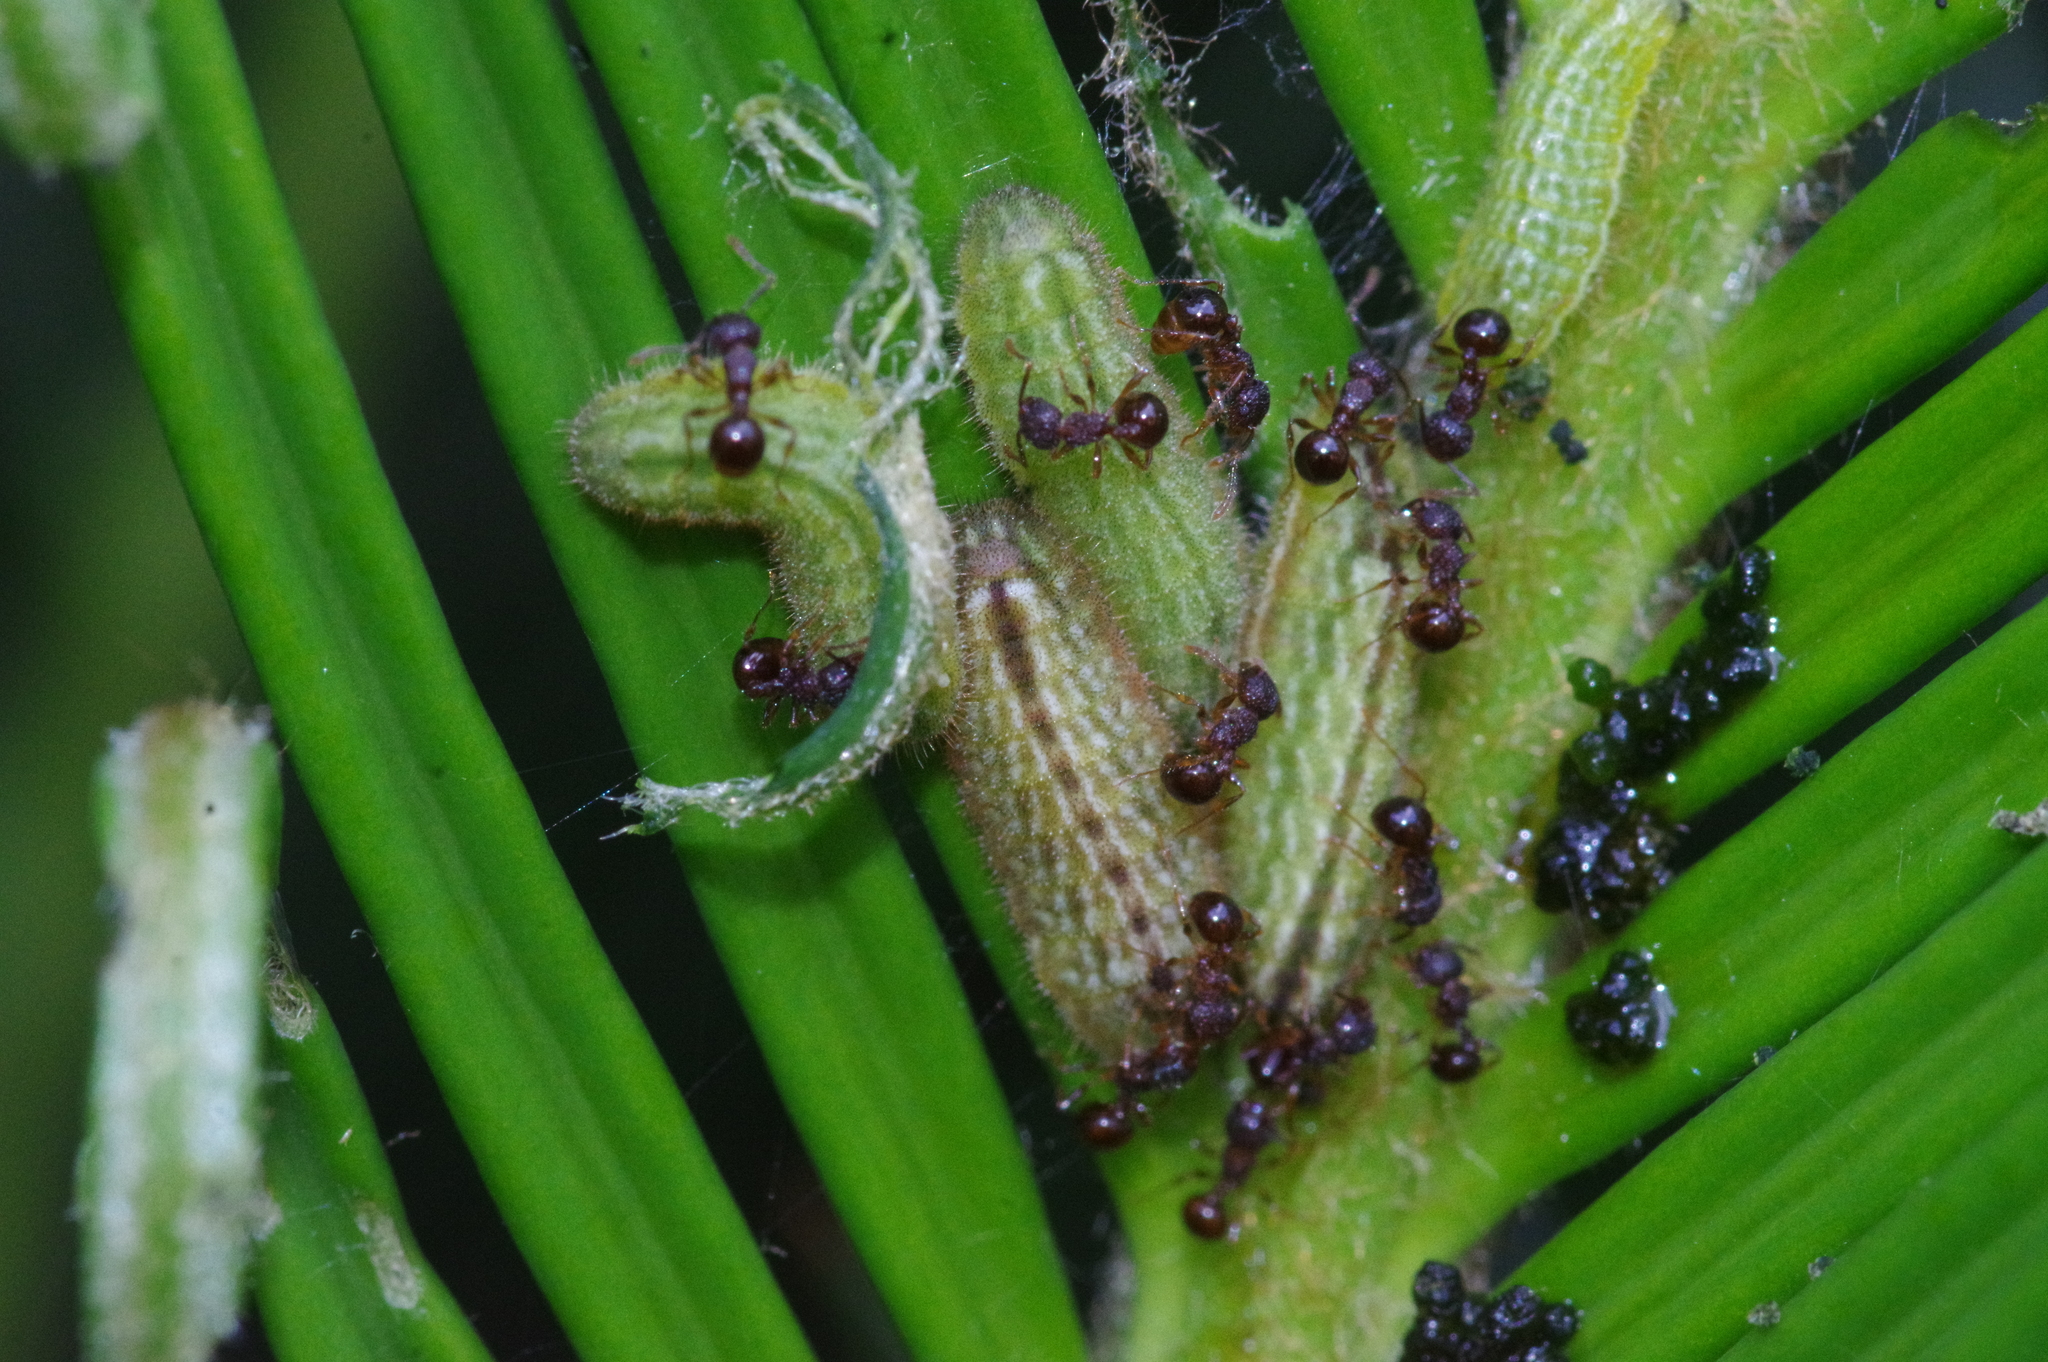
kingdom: Animalia
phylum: Arthropoda
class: Insecta
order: Lepidoptera
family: Lycaenidae
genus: Luthrodes
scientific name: Luthrodes pandava
